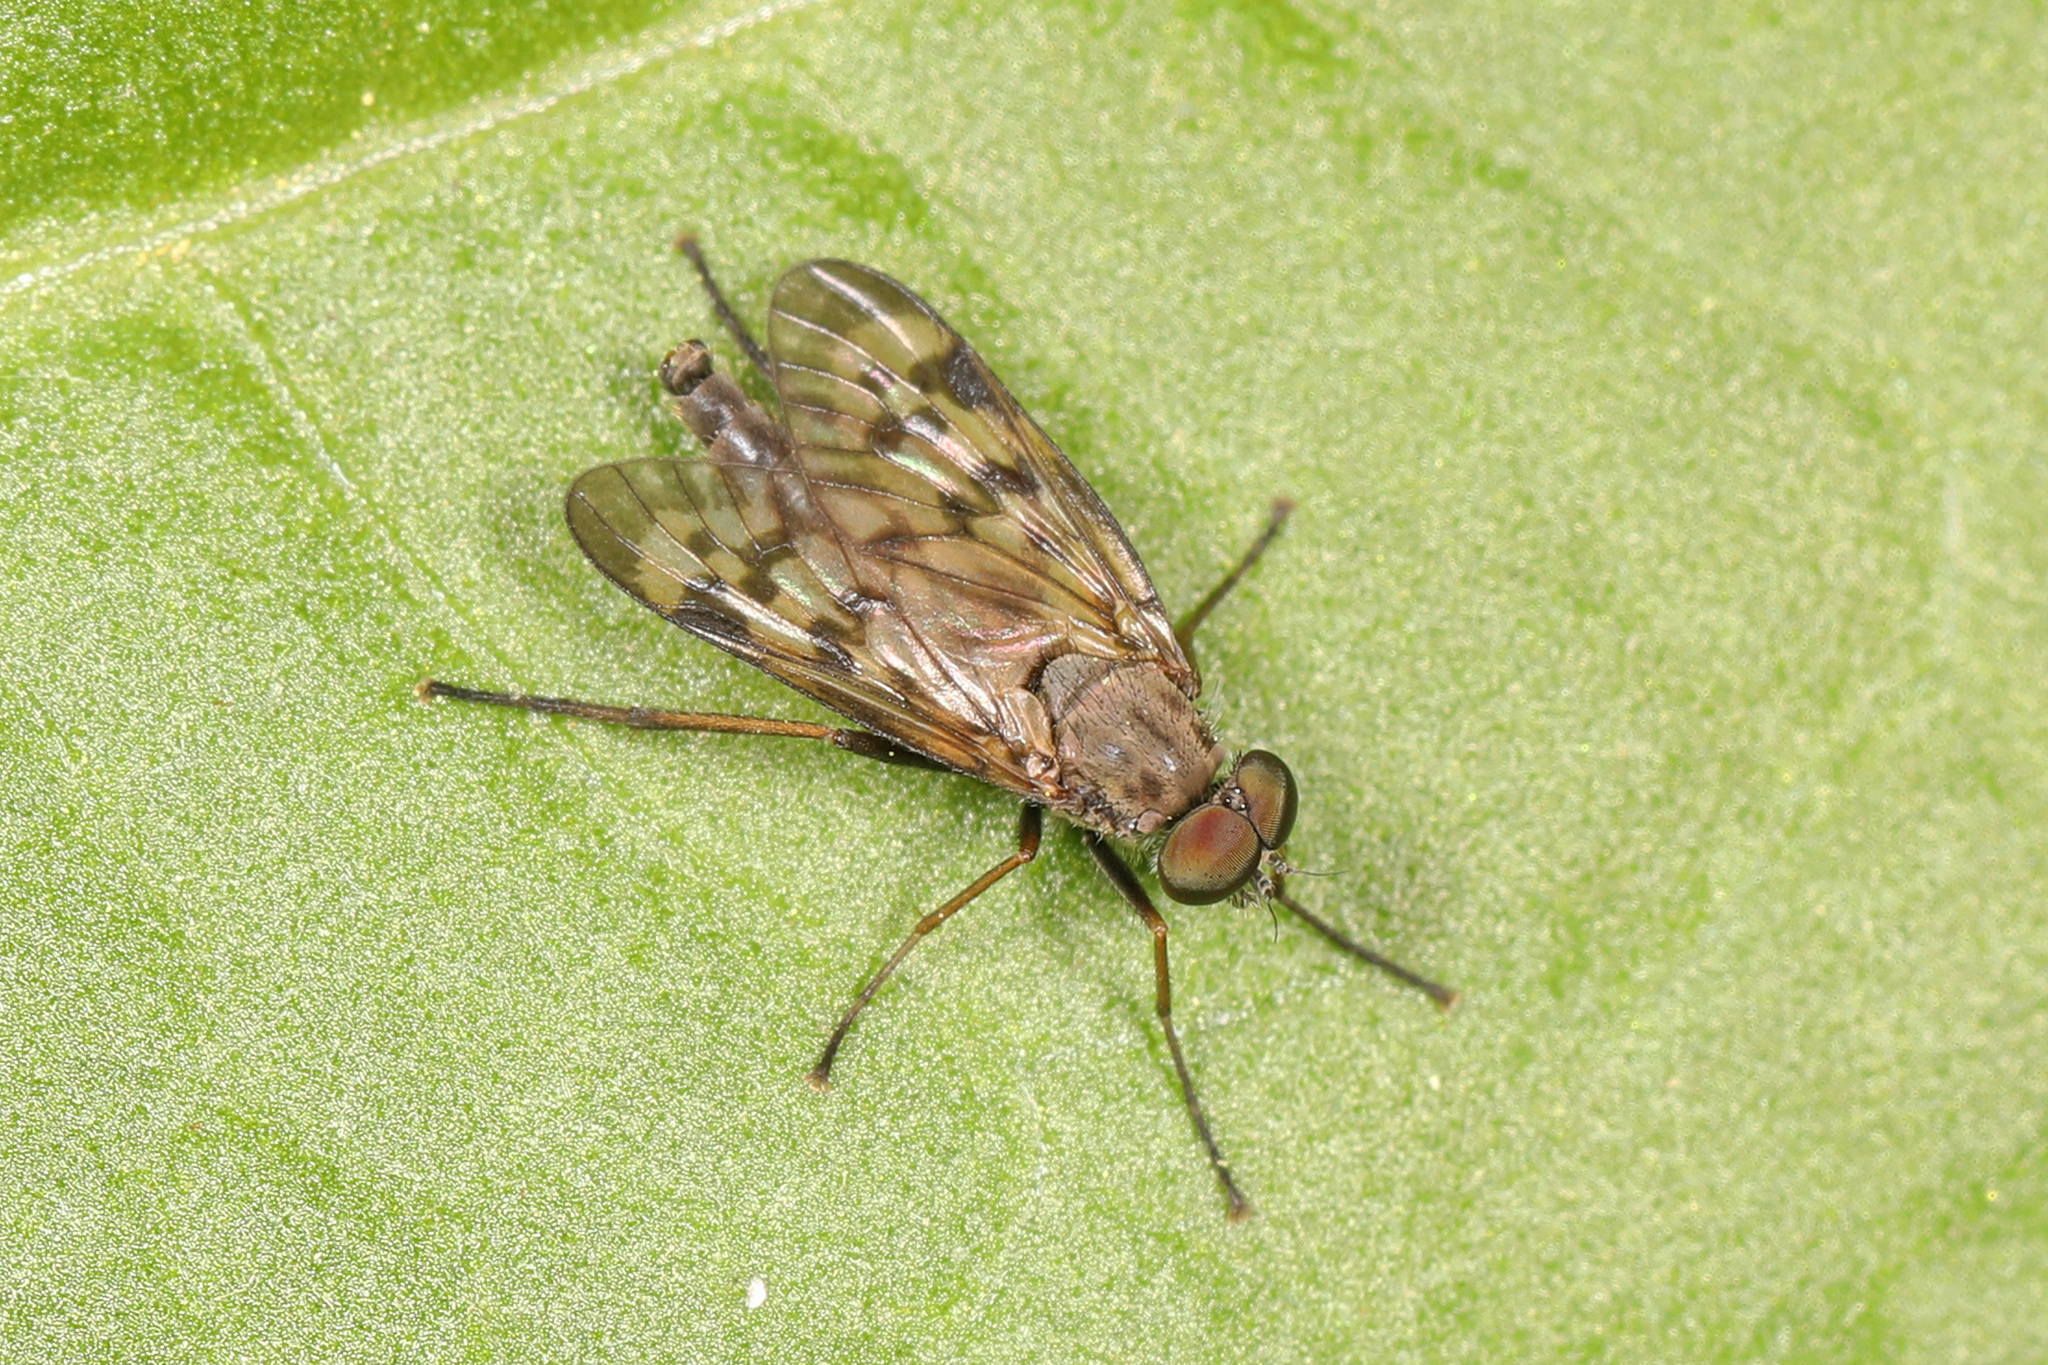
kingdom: Animalia
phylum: Arthropoda
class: Insecta
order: Diptera
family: Rhagionidae
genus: Rhagio
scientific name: Rhagio punctipennis
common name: Lesser variegated snipe fly
